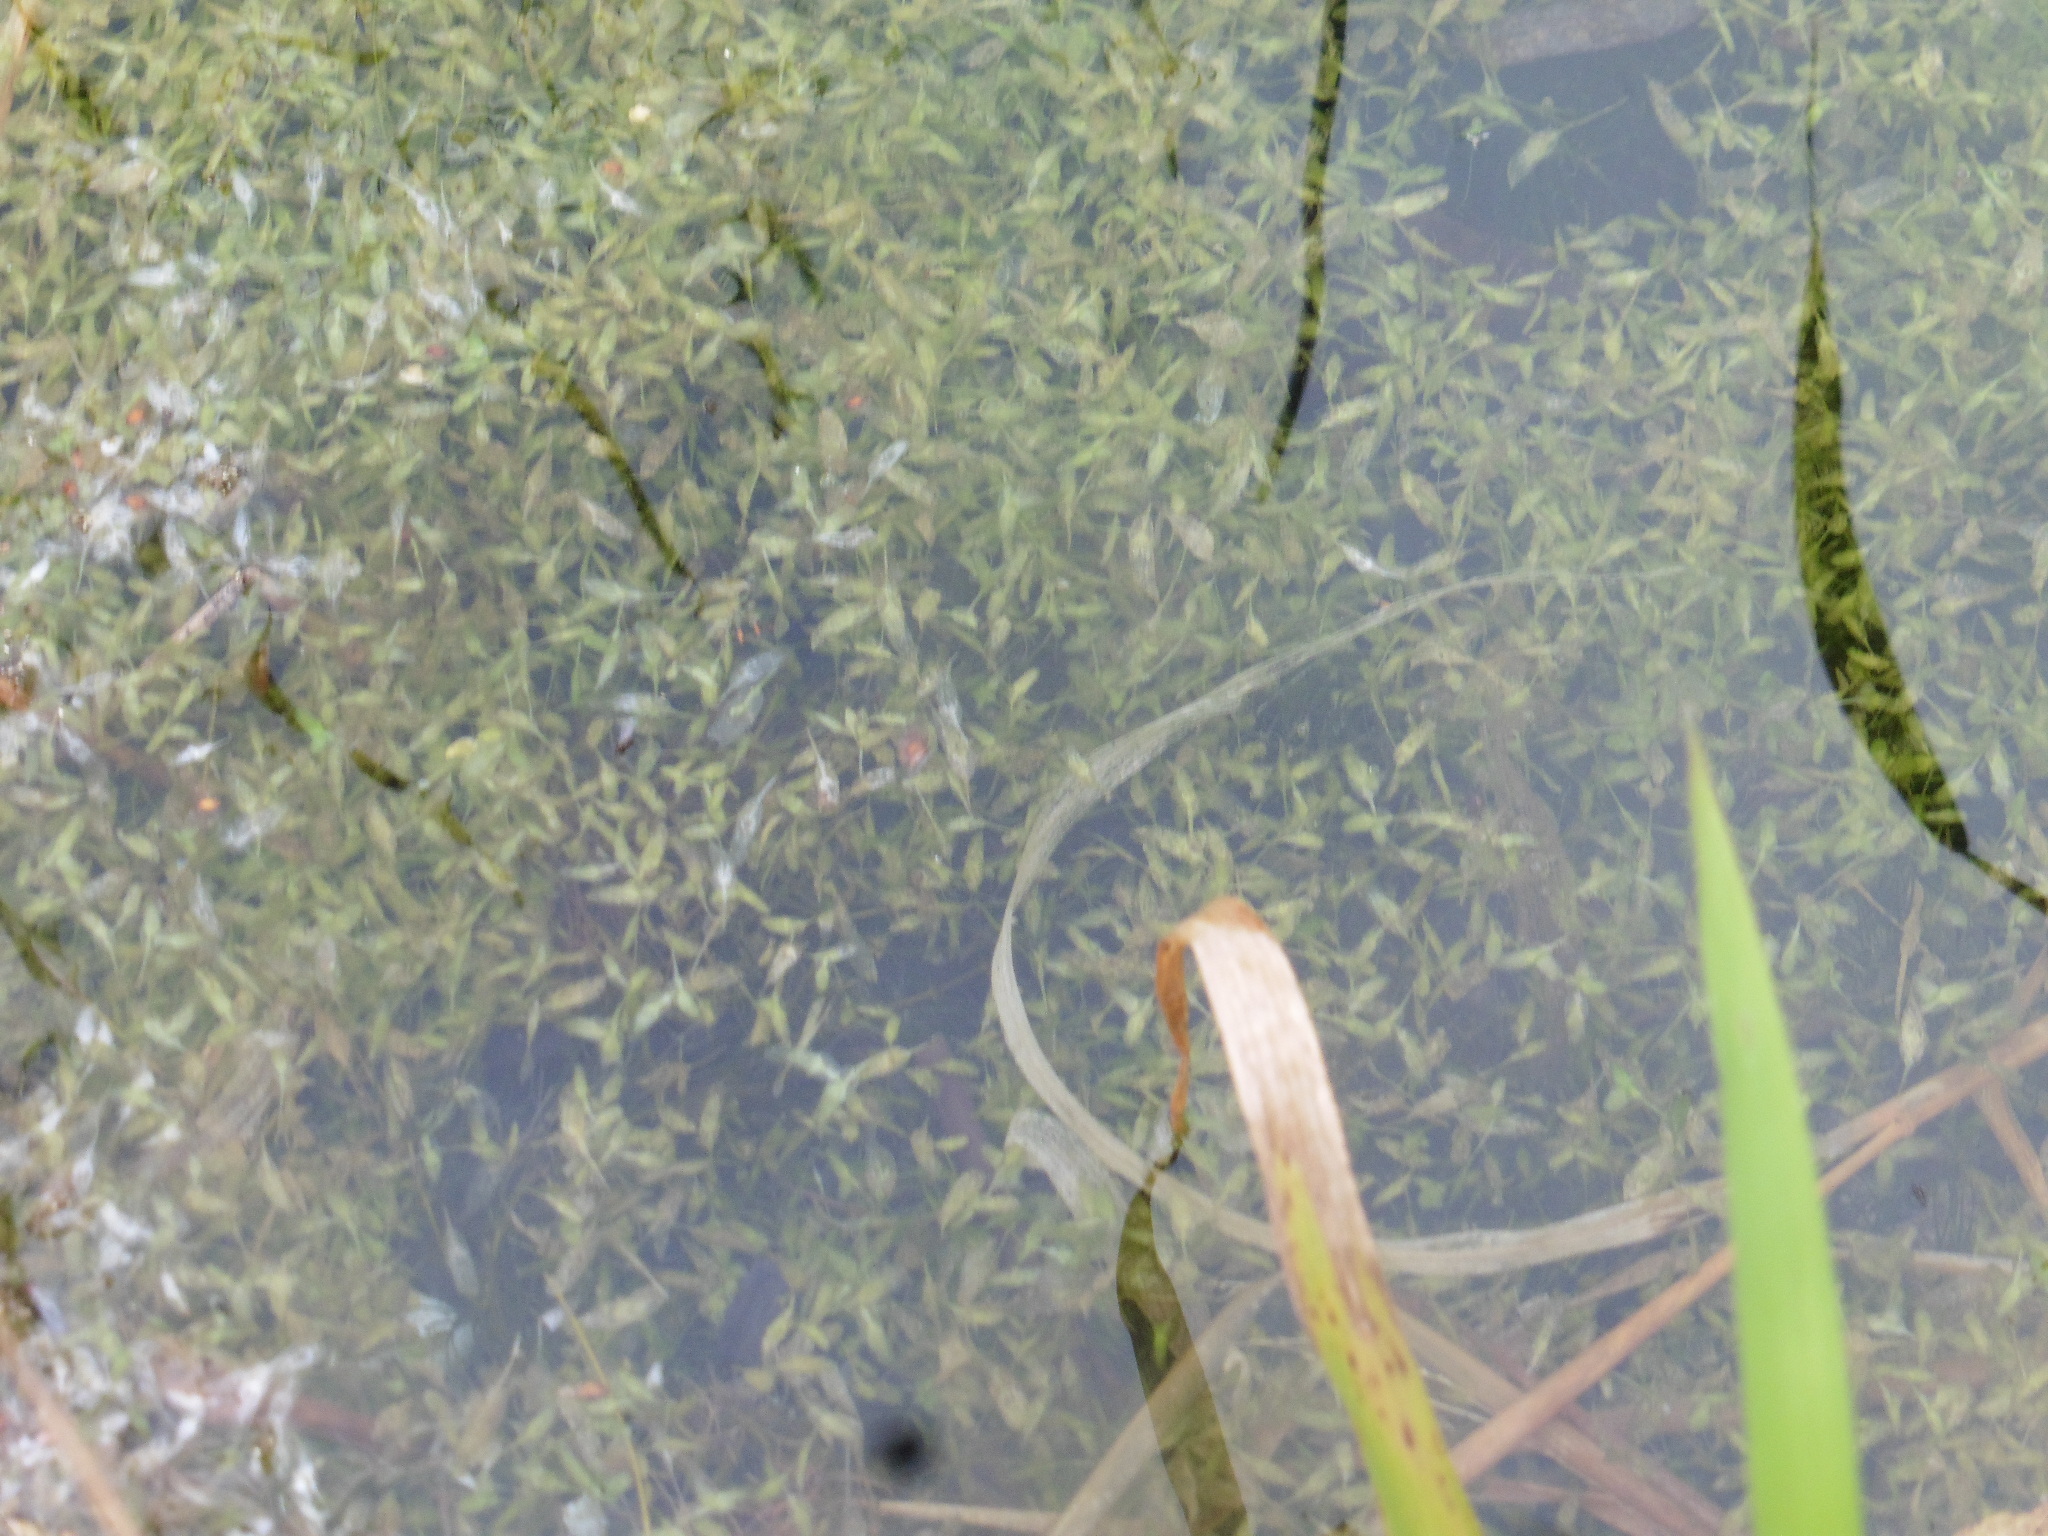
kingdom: Plantae
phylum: Tracheophyta
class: Liliopsida
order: Alismatales
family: Araceae
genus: Lemna
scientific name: Lemna trisulca
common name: Ivy-leaved duckweed
